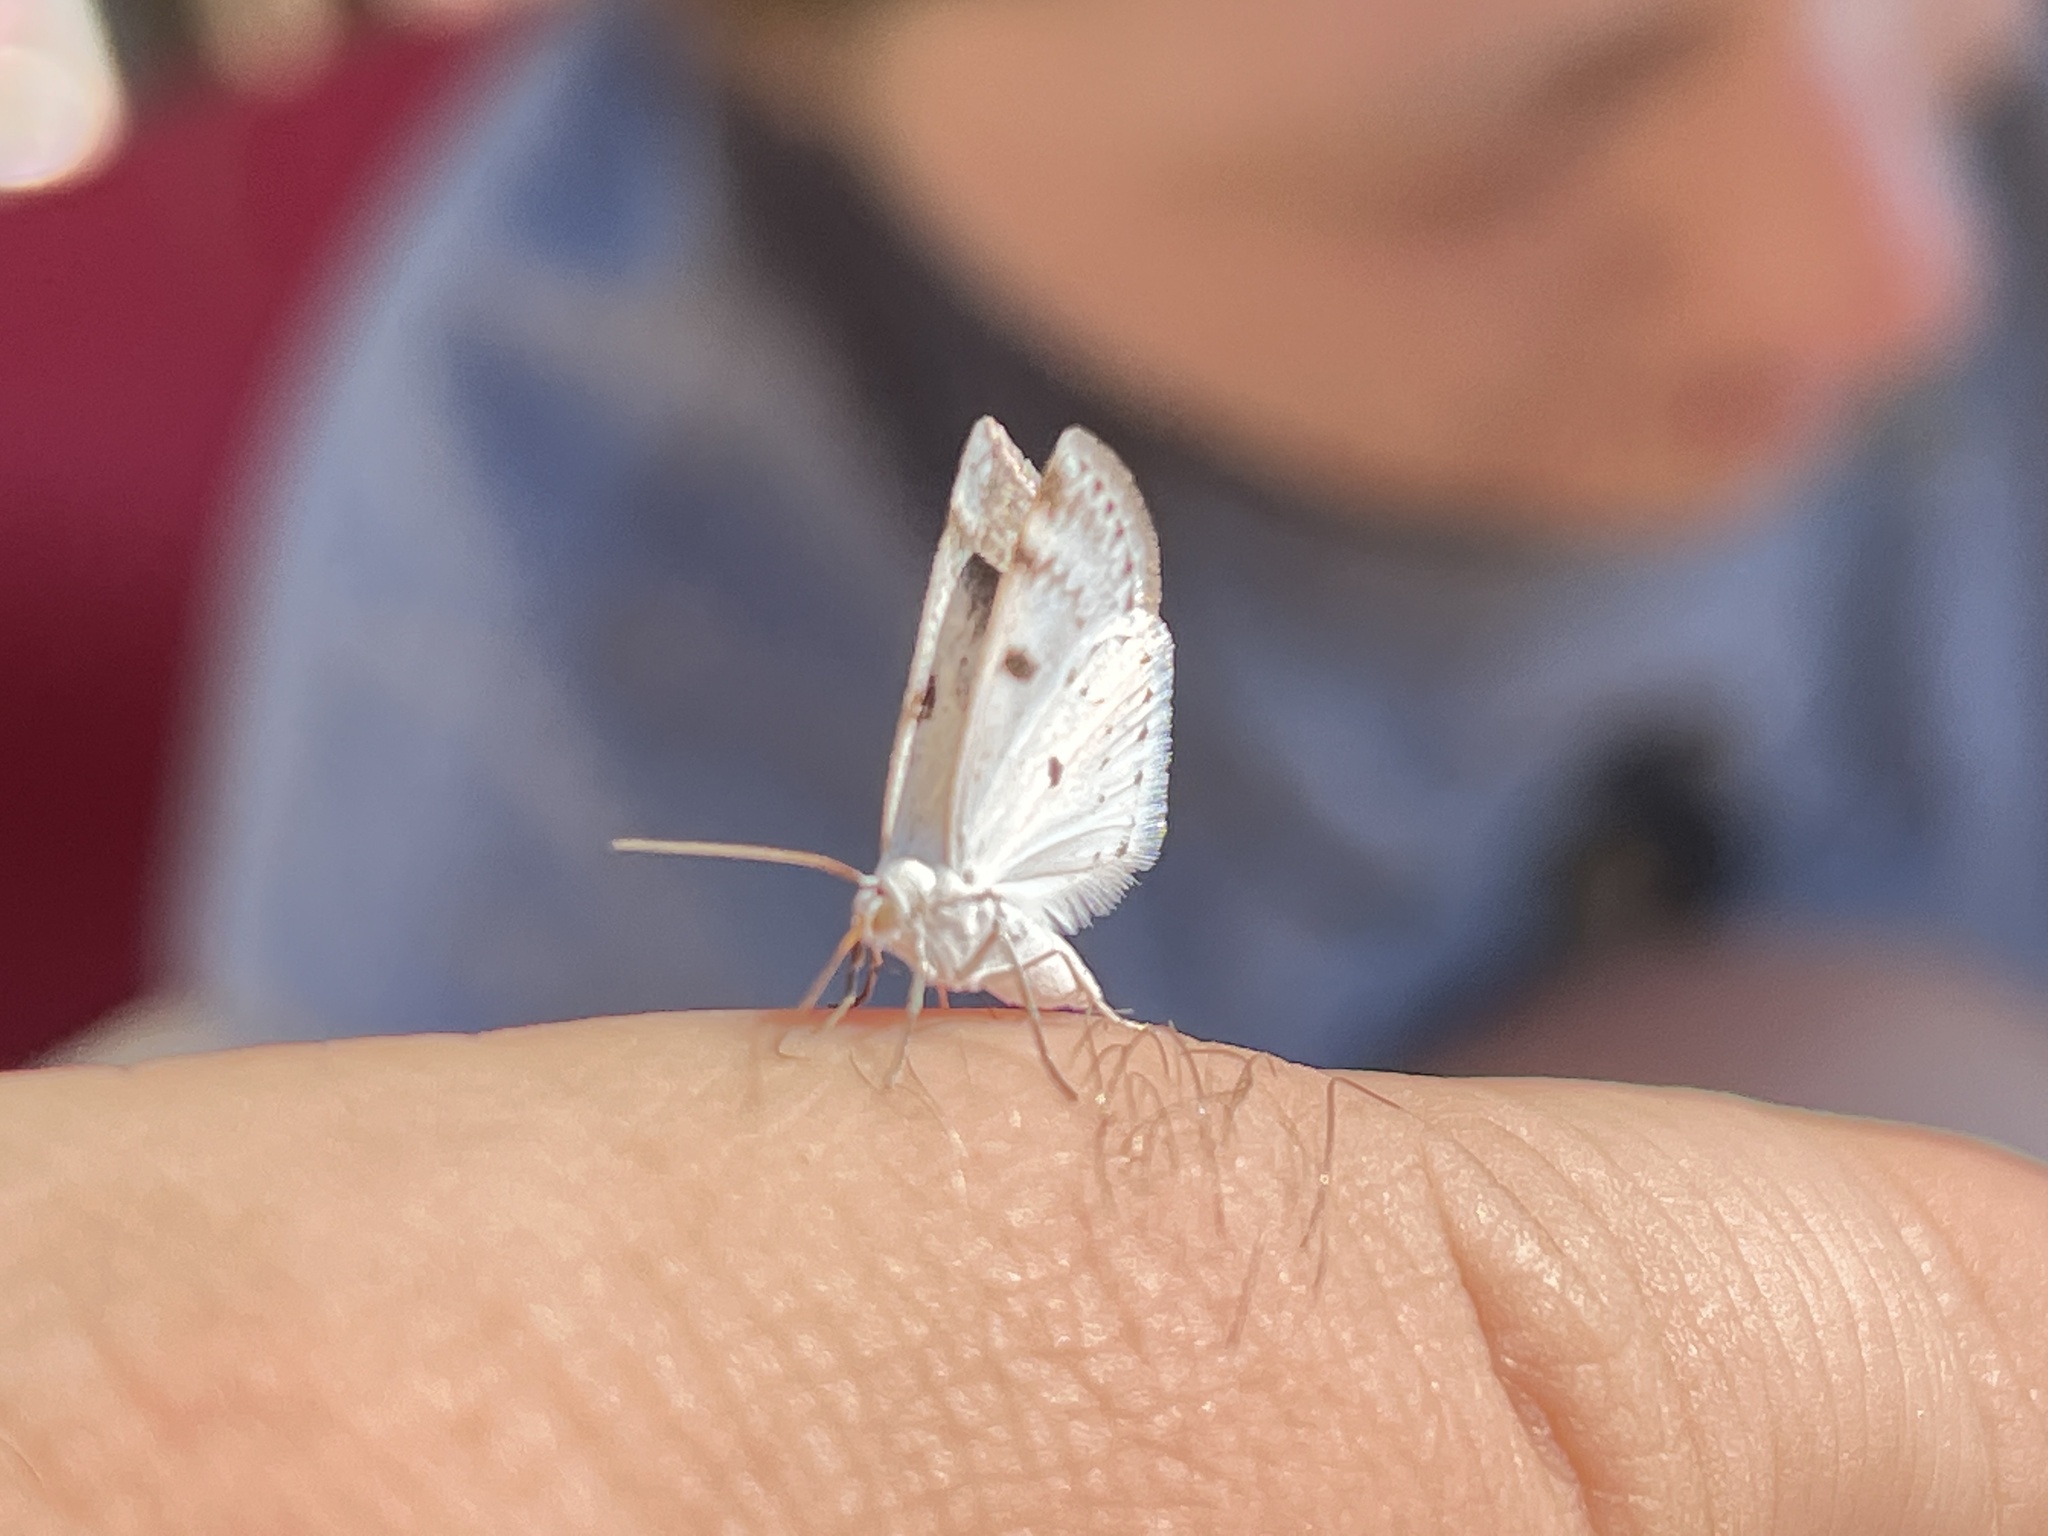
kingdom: Animalia
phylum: Arthropoda
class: Insecta
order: Lepidoptera
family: Geometridae
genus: Lomographa
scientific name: Lomographa semiclarata
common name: Bluish spring moth
